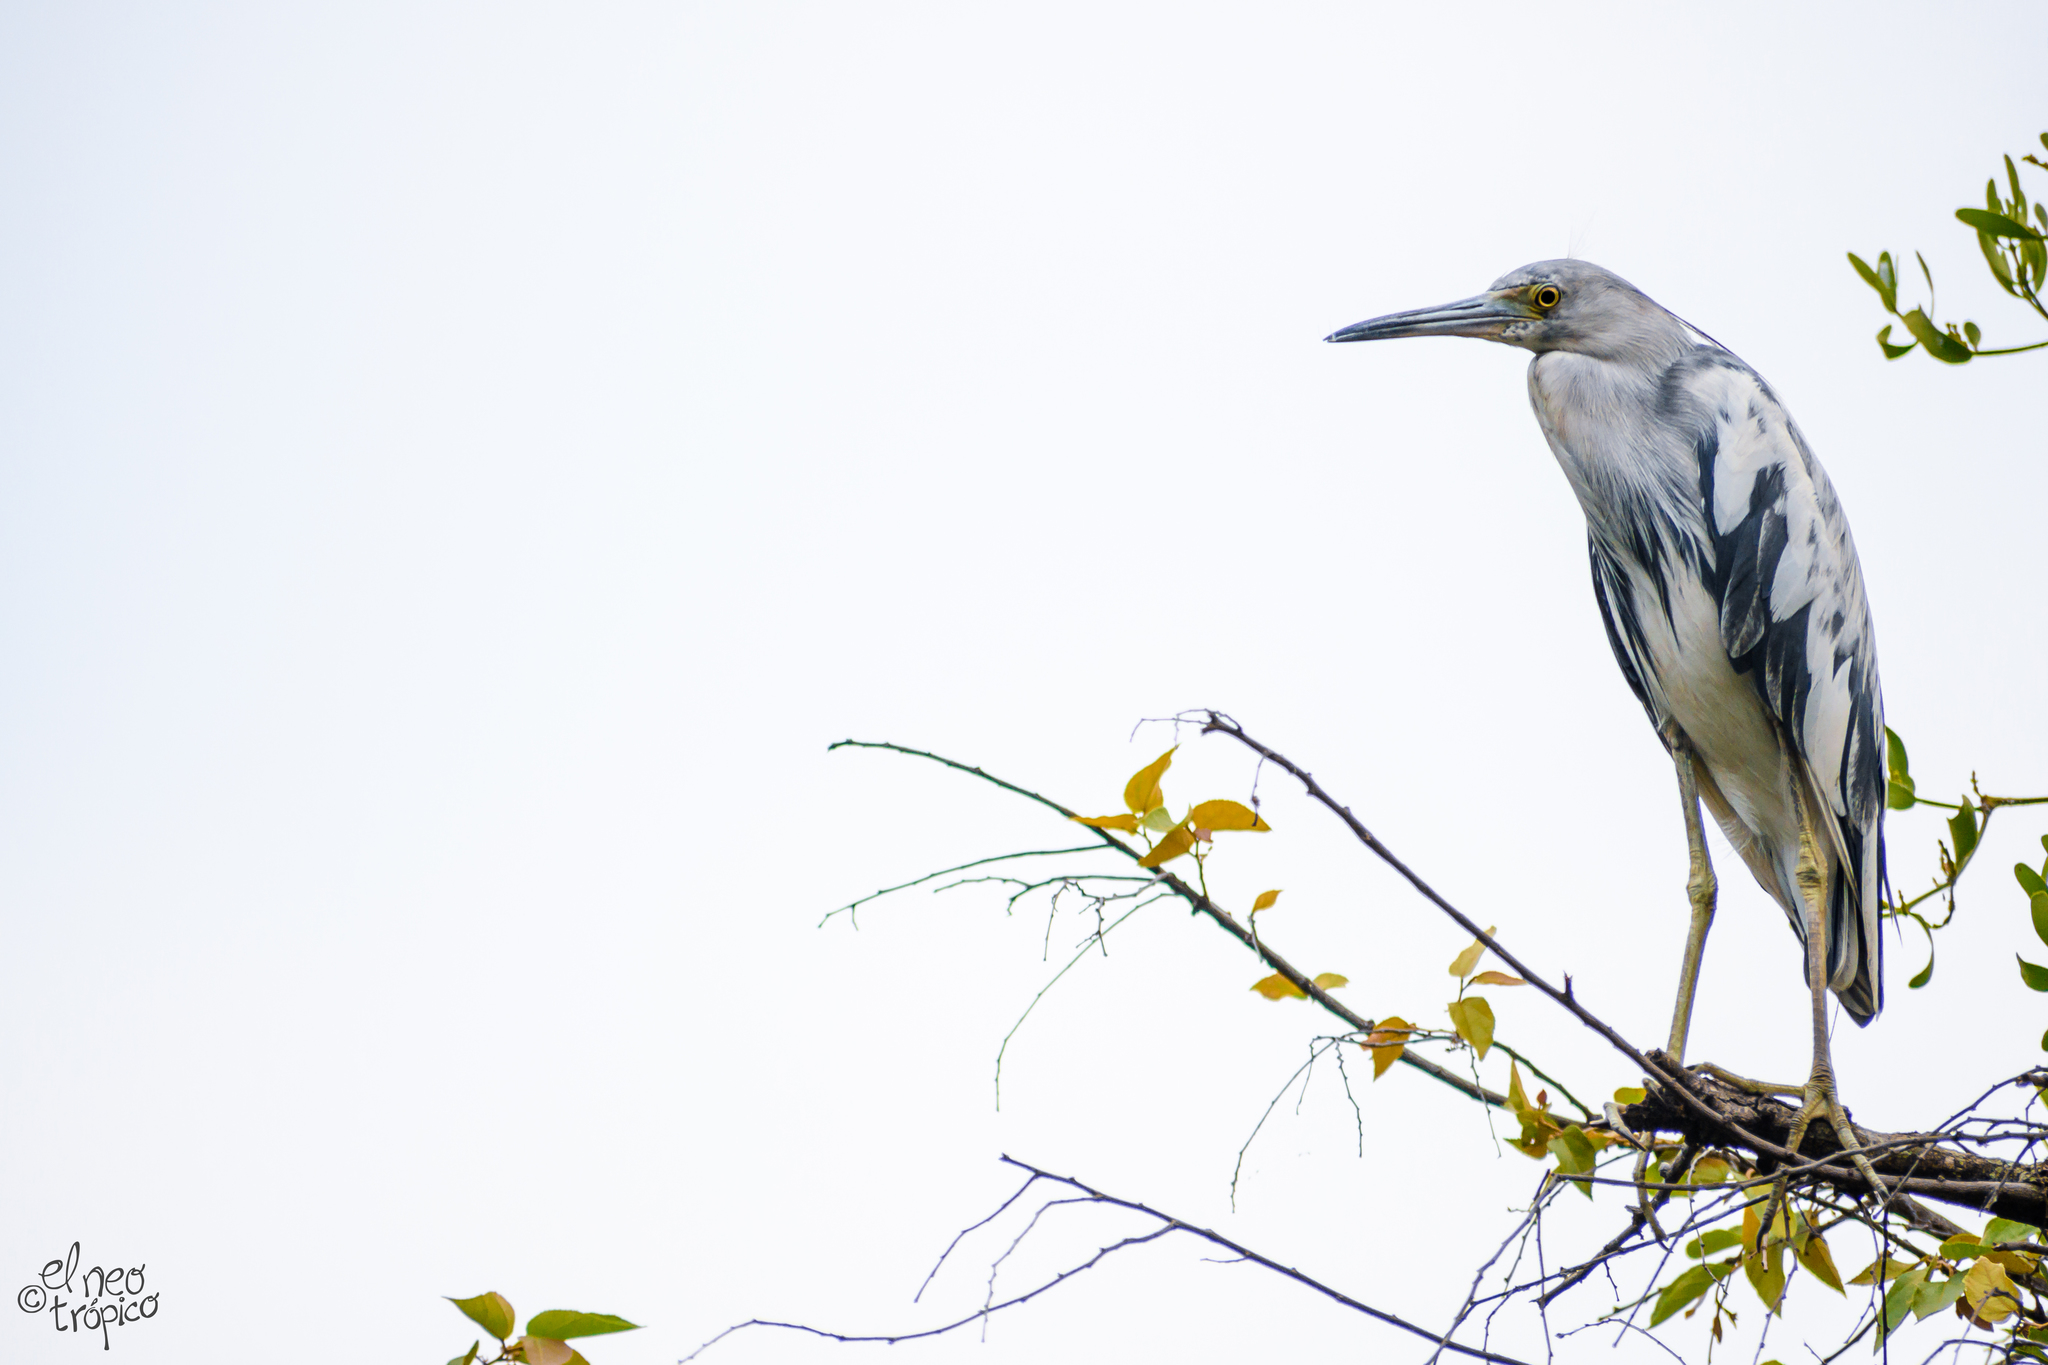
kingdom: Animalia
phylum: Chordata
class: Aves
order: Pelecaniformes
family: Ardeidae
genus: Egretta
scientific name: Egretta caerulea
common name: Little blue heron
